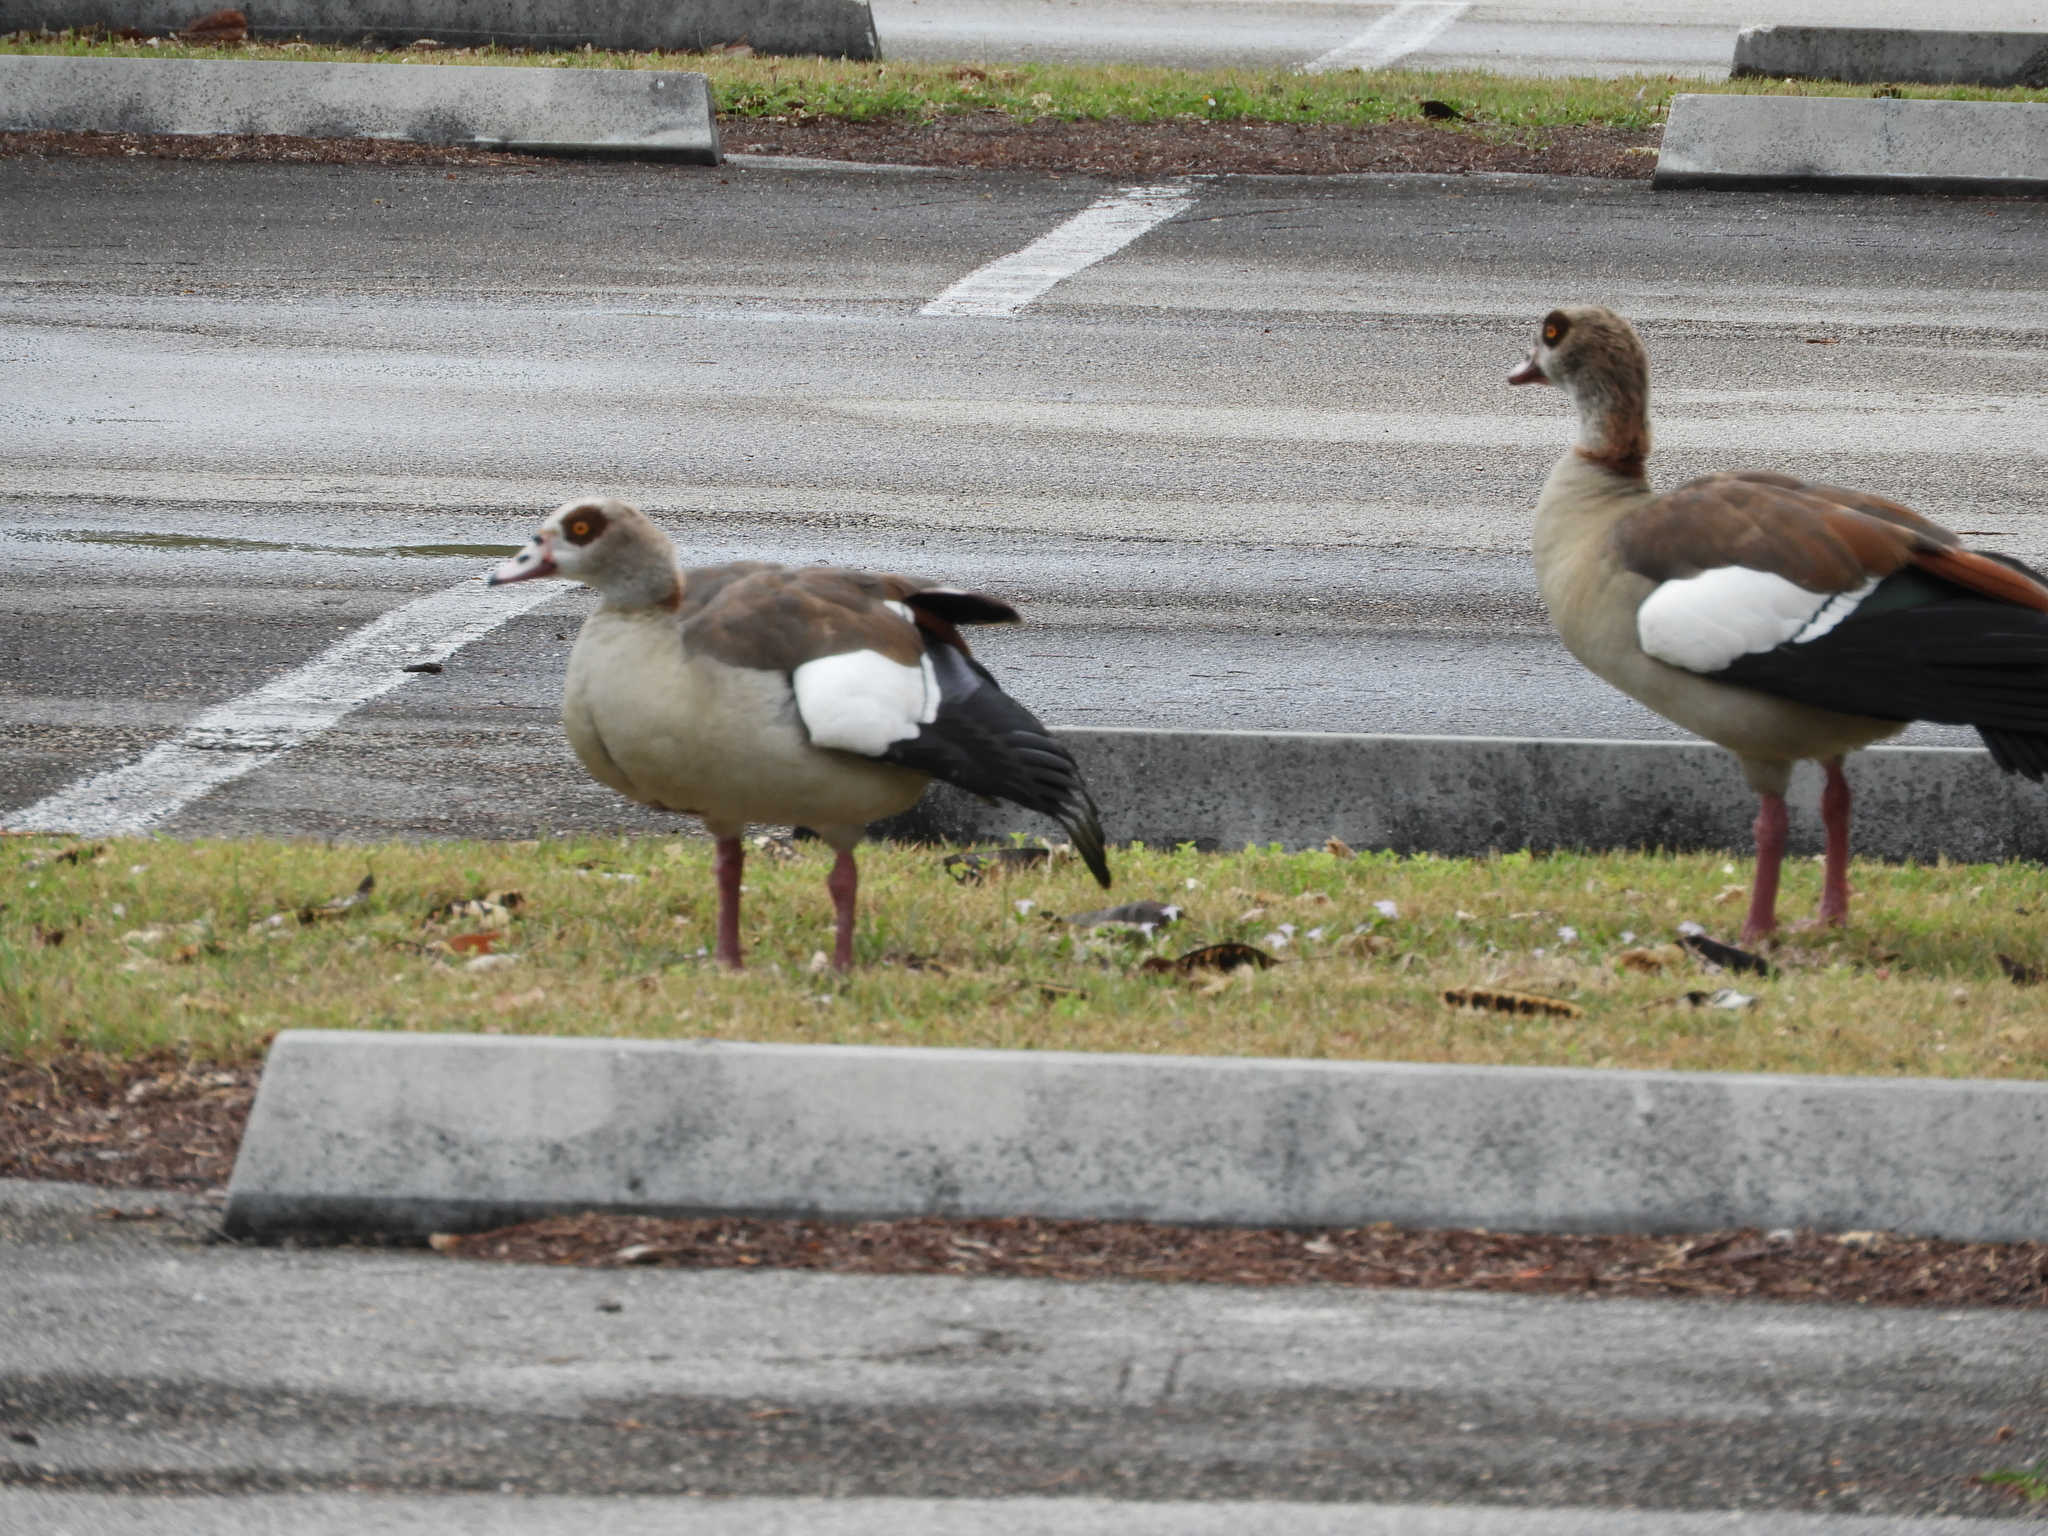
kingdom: Animalia
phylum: Chordata
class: Aves
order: Anseriformes
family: Anatidae
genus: Alopochen
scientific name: Alopochen aegyptiaca
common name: Egyptian goose
